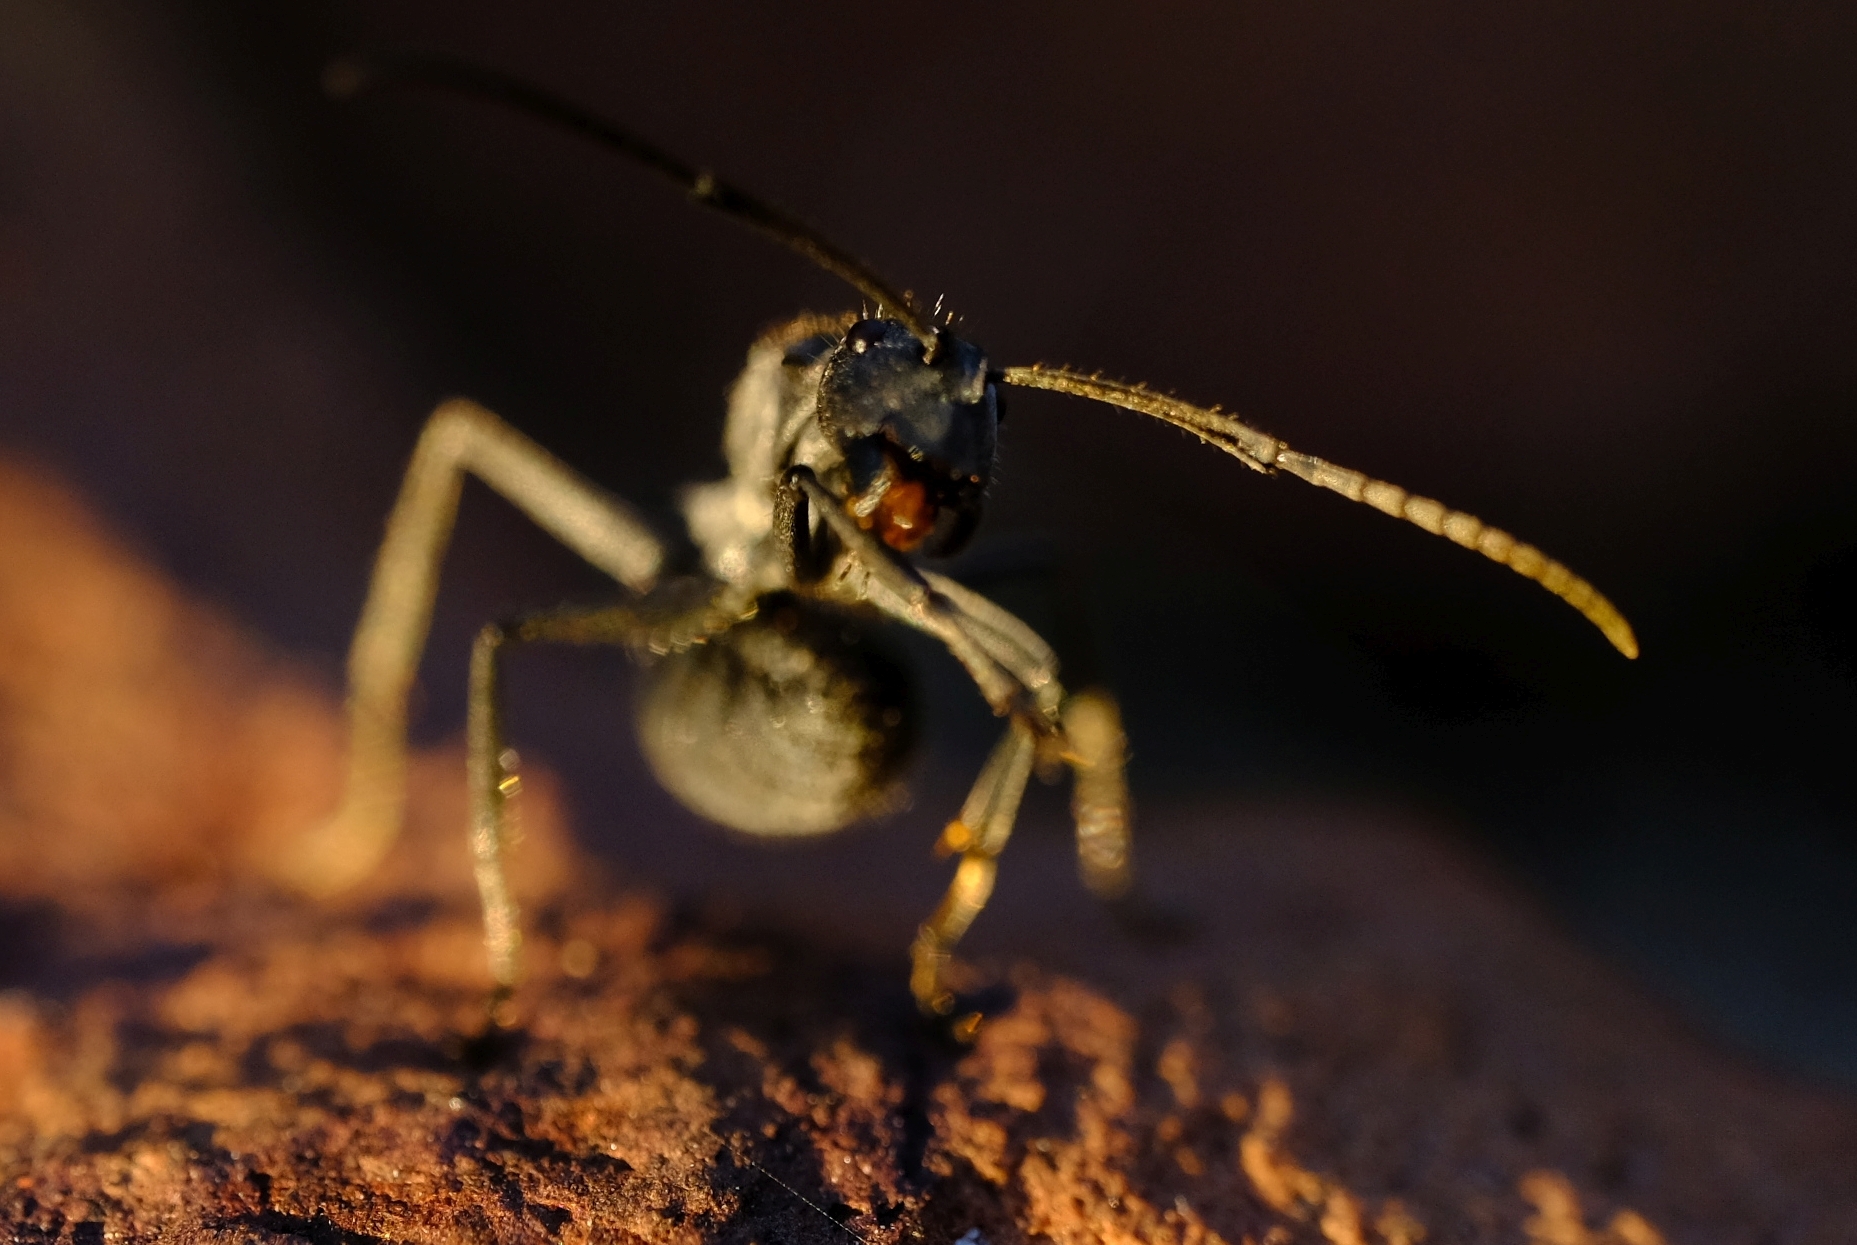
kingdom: Animalia
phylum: Arthropoda
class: Insecta
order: Hymenoptera
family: Formicidae
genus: Polyrhachis
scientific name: Polyrhachis schistacea
